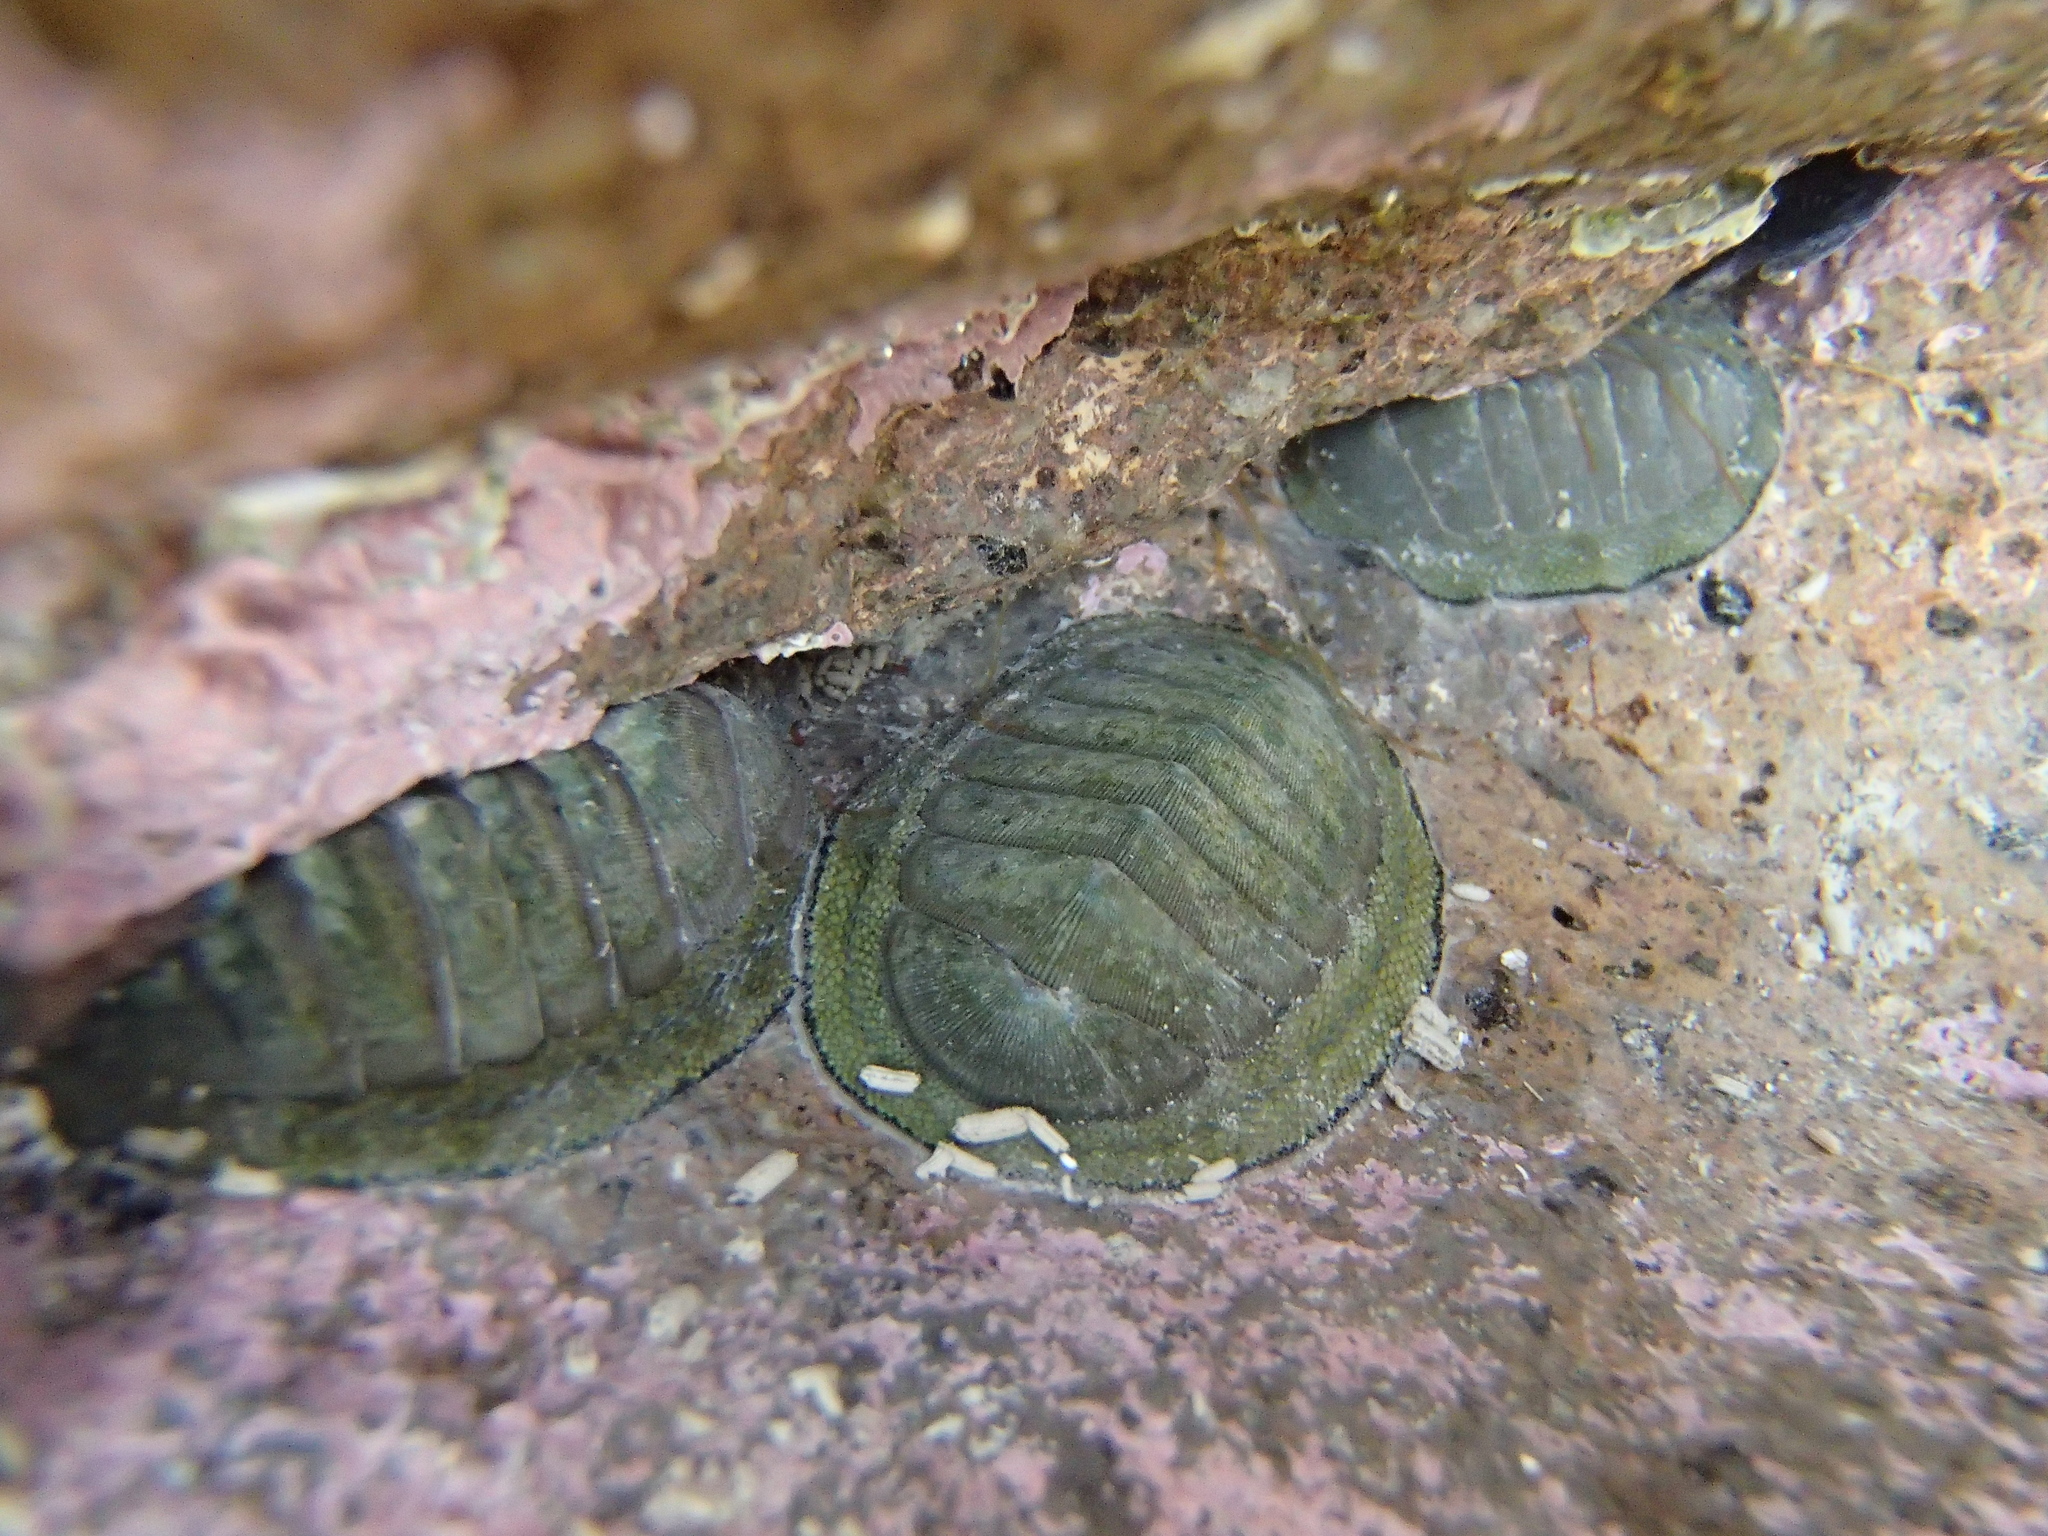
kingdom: Animalia
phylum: Mollusca
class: Polyplacophora
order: Chitonida
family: Chitonidae
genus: Chiton
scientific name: Chiton glaucus
